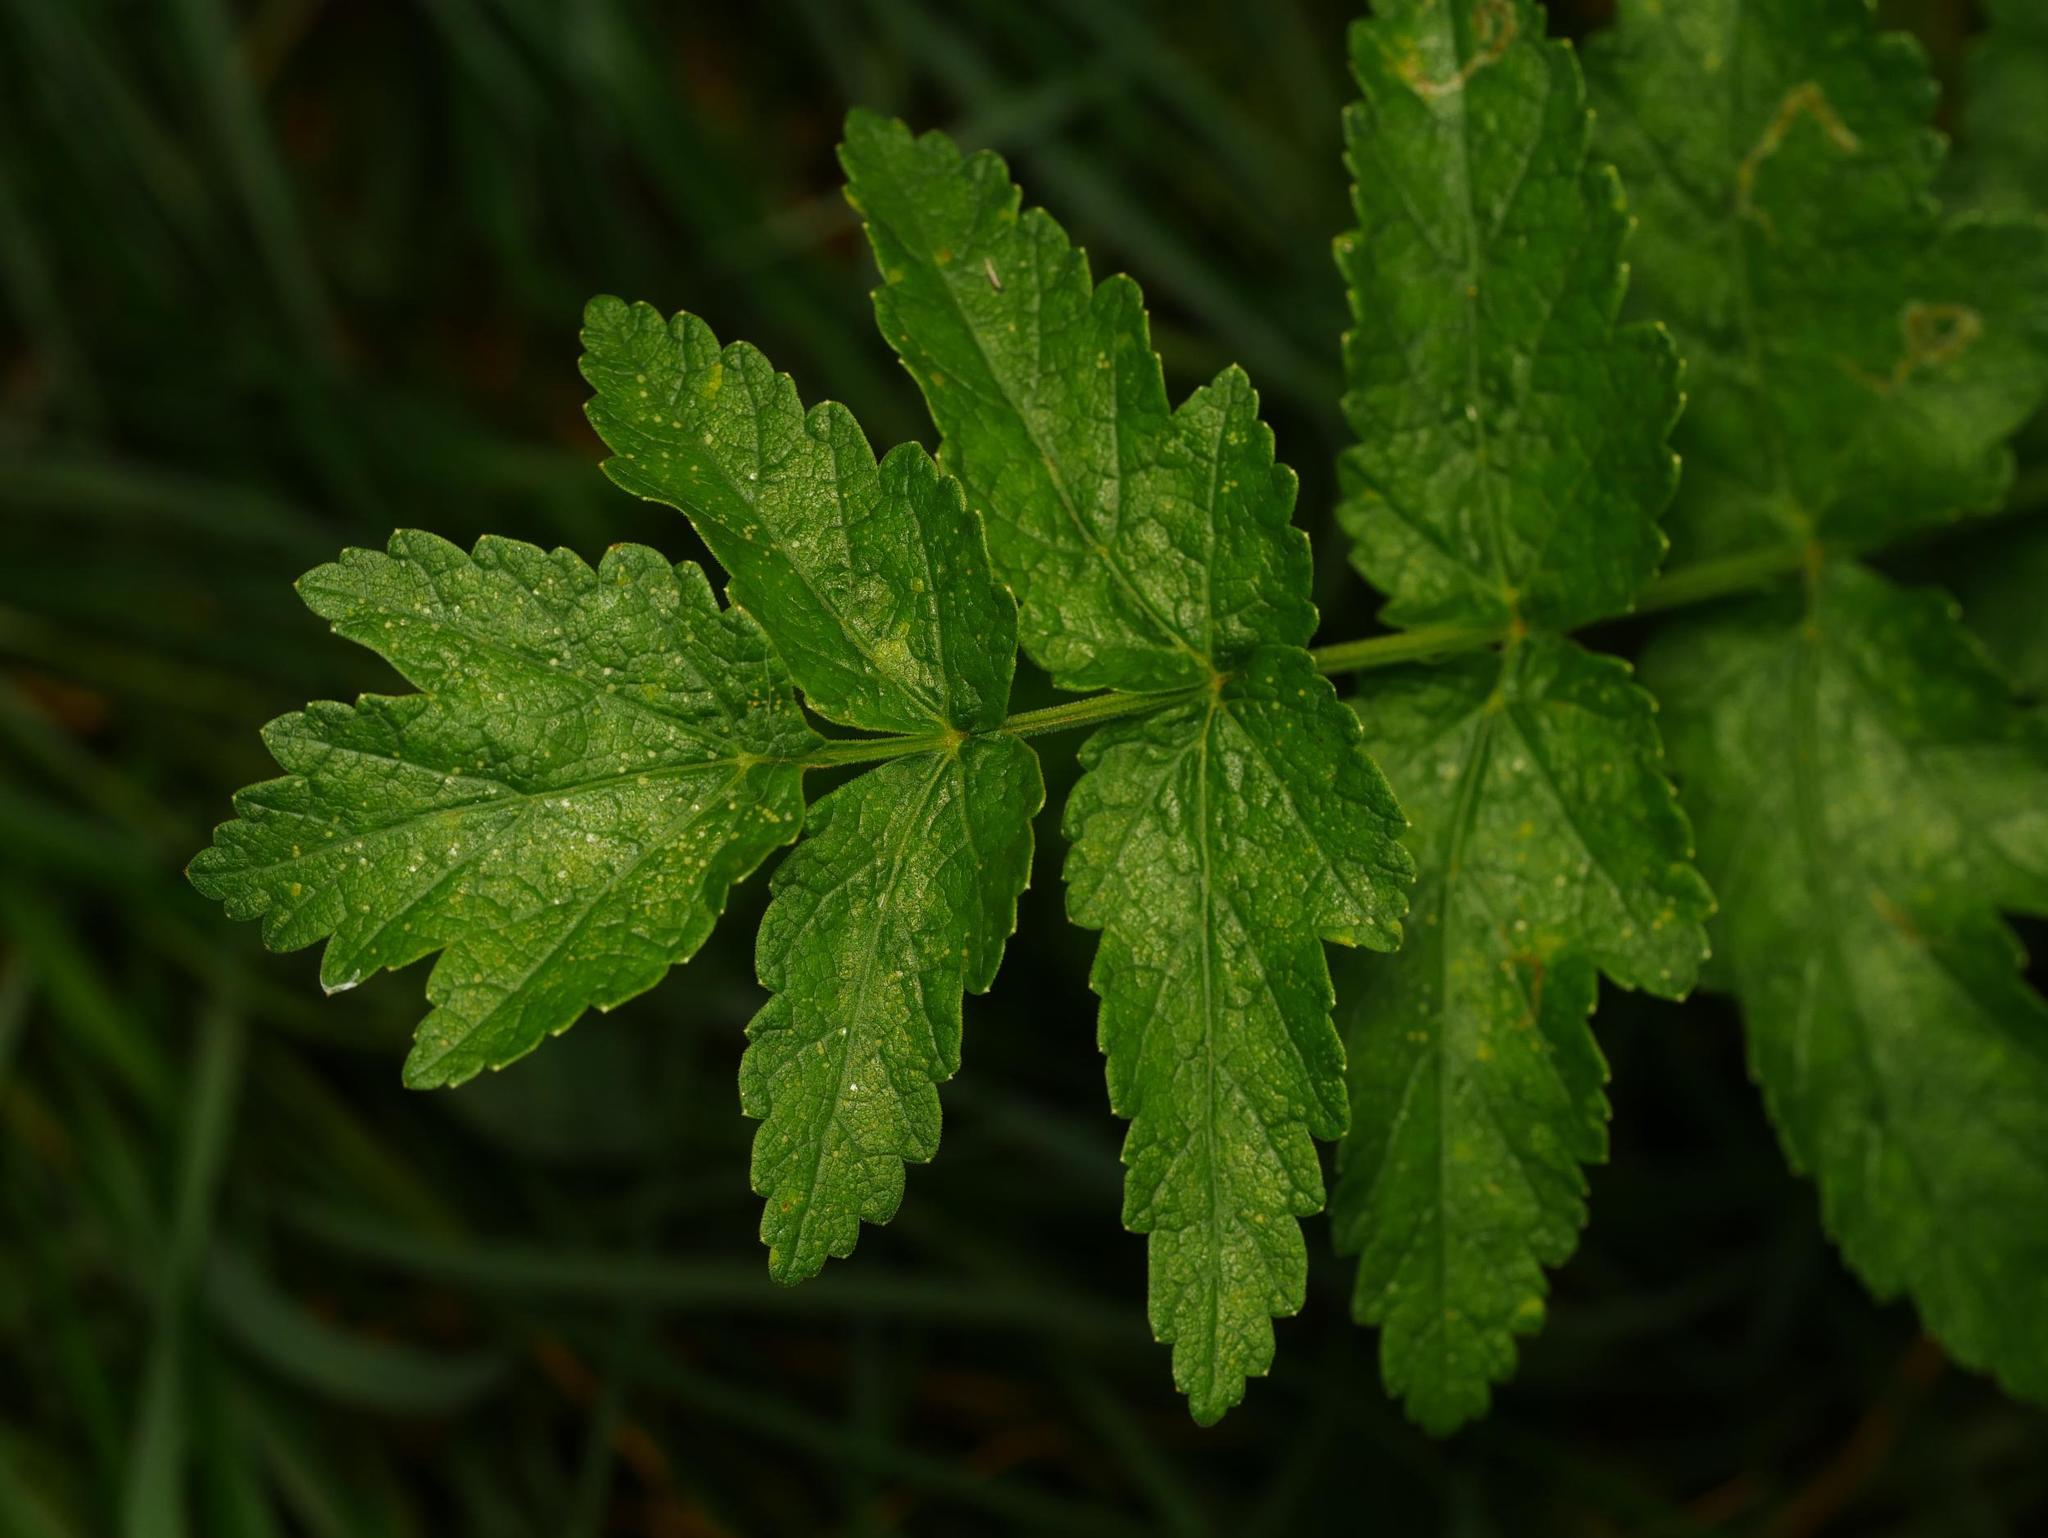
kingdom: Plantae
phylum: Tracheophyta
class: Magnoliopsida
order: Apiales
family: Apiaceae
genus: Pastinaca
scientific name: Pastinaca sativa
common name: Wild parsnip
